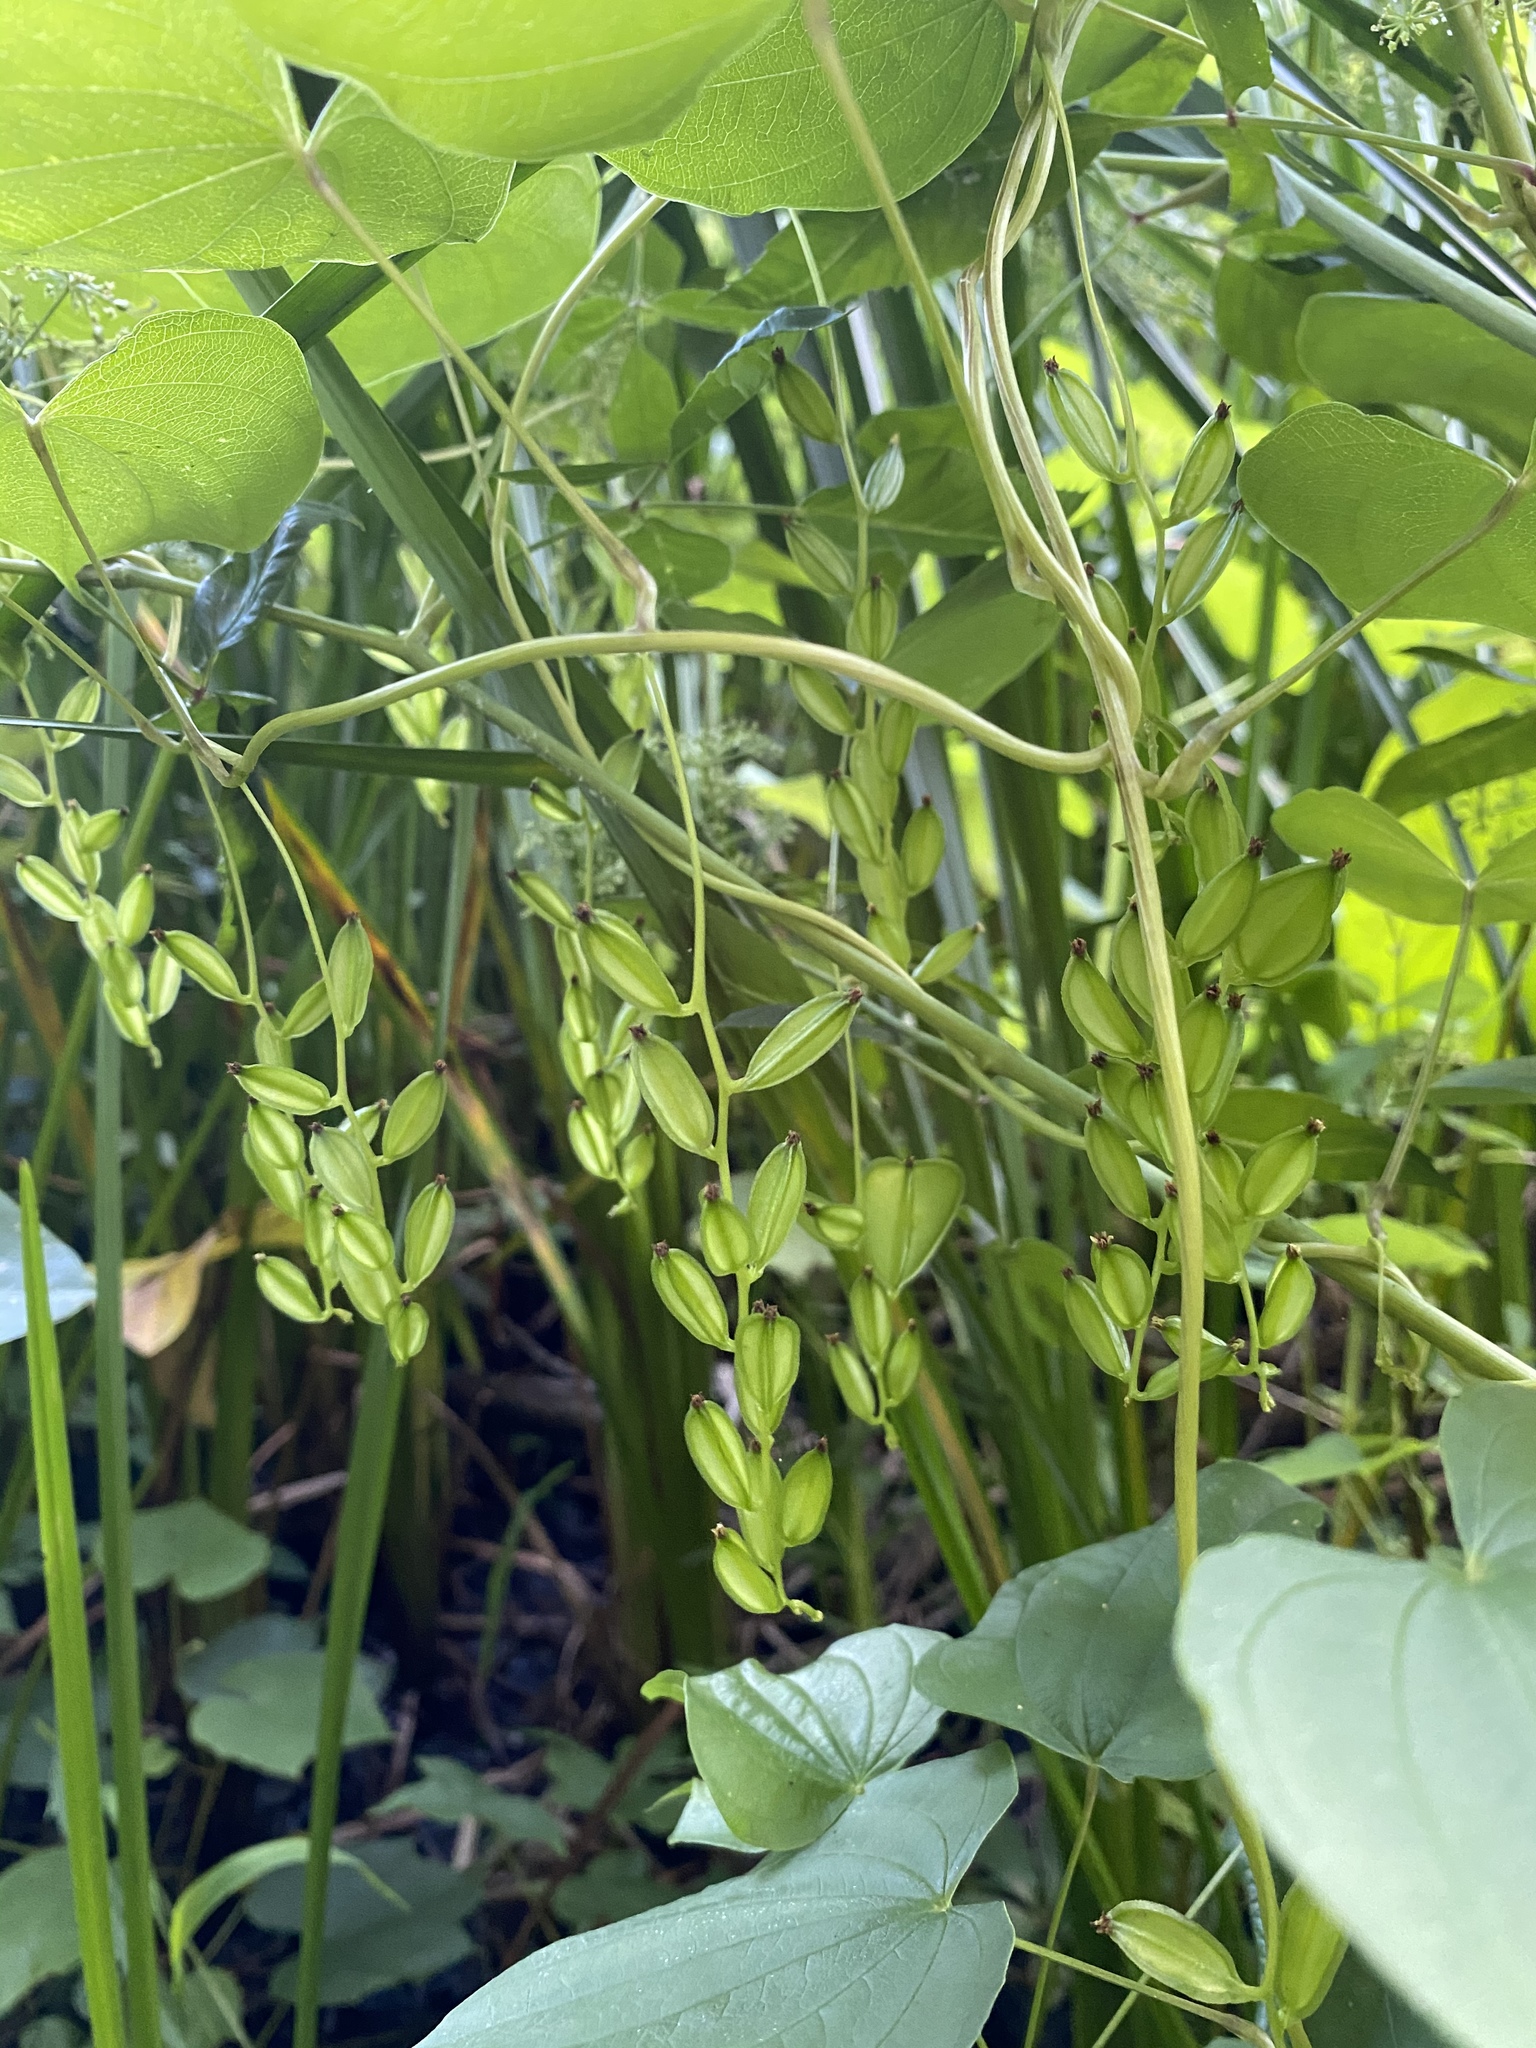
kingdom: Plantae
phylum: Tracheophyta
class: Liliopsida
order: Dioscoreales
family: Dioscoreaceae
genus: Dioscorea
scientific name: Dioscorea villosa
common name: Wild yam
